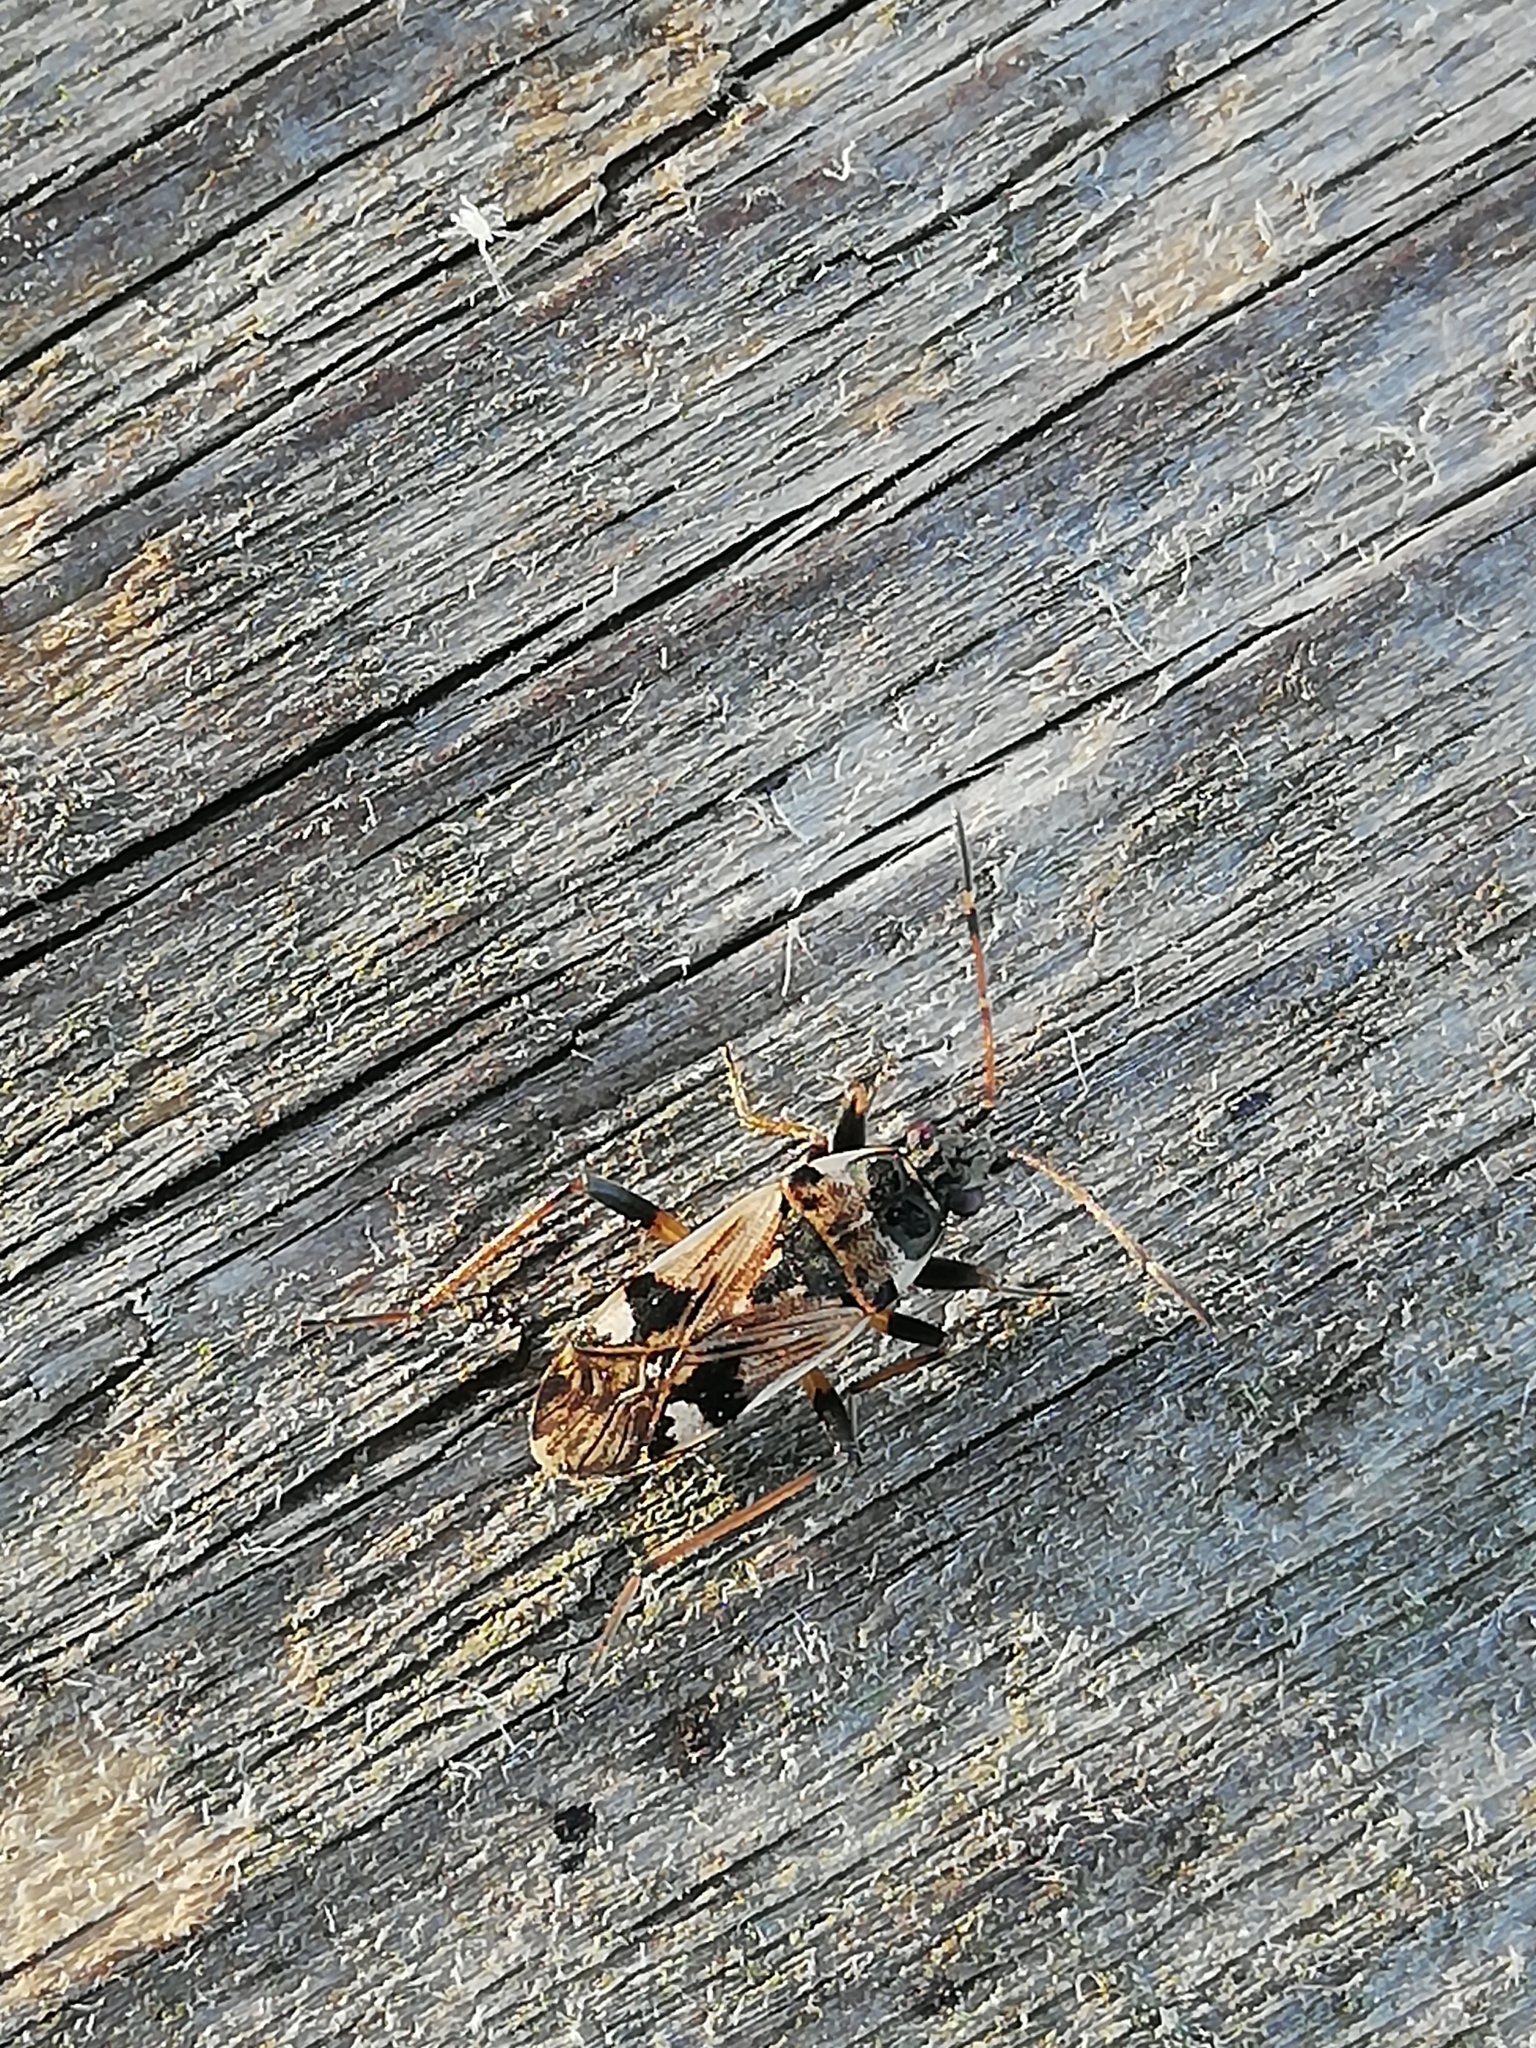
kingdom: Animalia
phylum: Arthropoda
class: Insecta
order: Hemiptera
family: Rhyparochromidae
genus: Beosus
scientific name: Beosus maritimus
